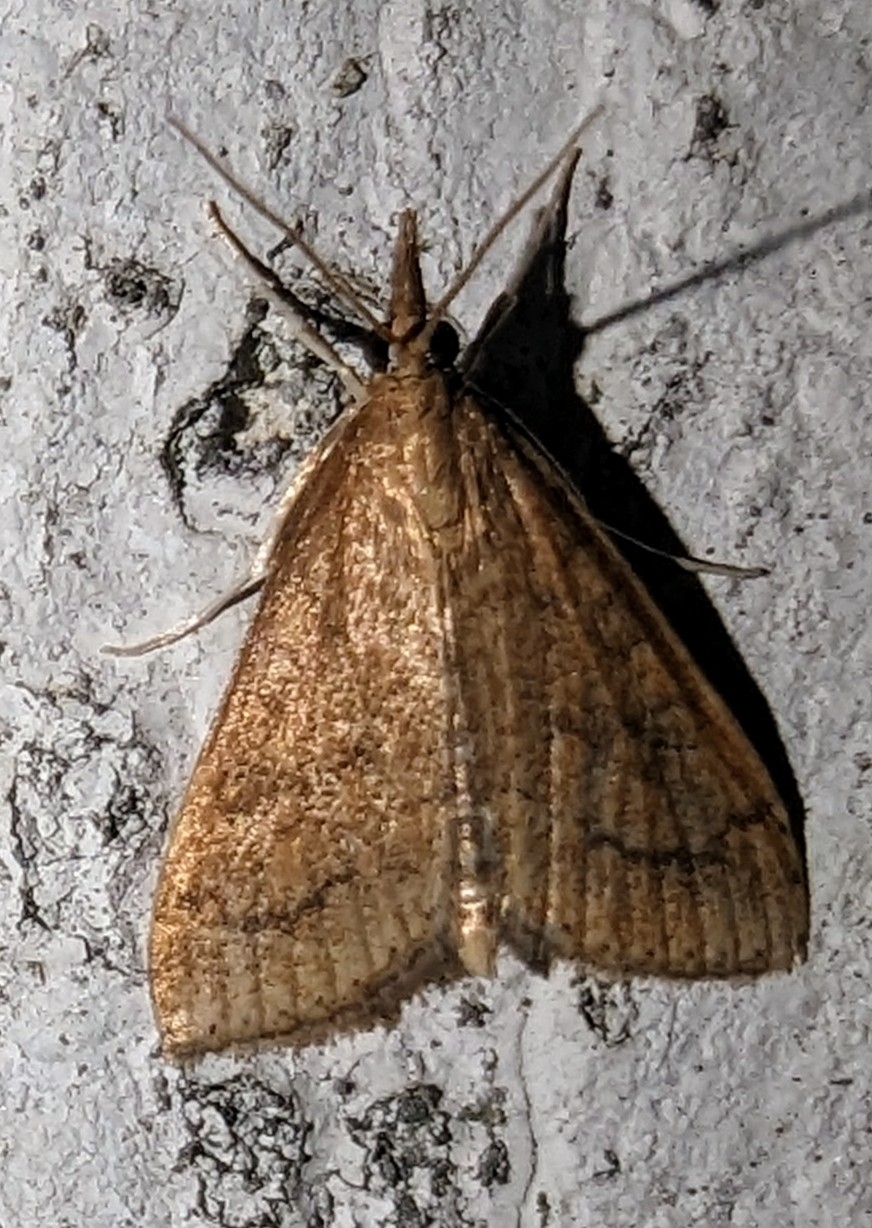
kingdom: Animalia
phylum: Arthropoda
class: Insecta
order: Lepidoptera
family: Crambidae
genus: Udea
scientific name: Udea rubigalis
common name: Celery leaftier moth
